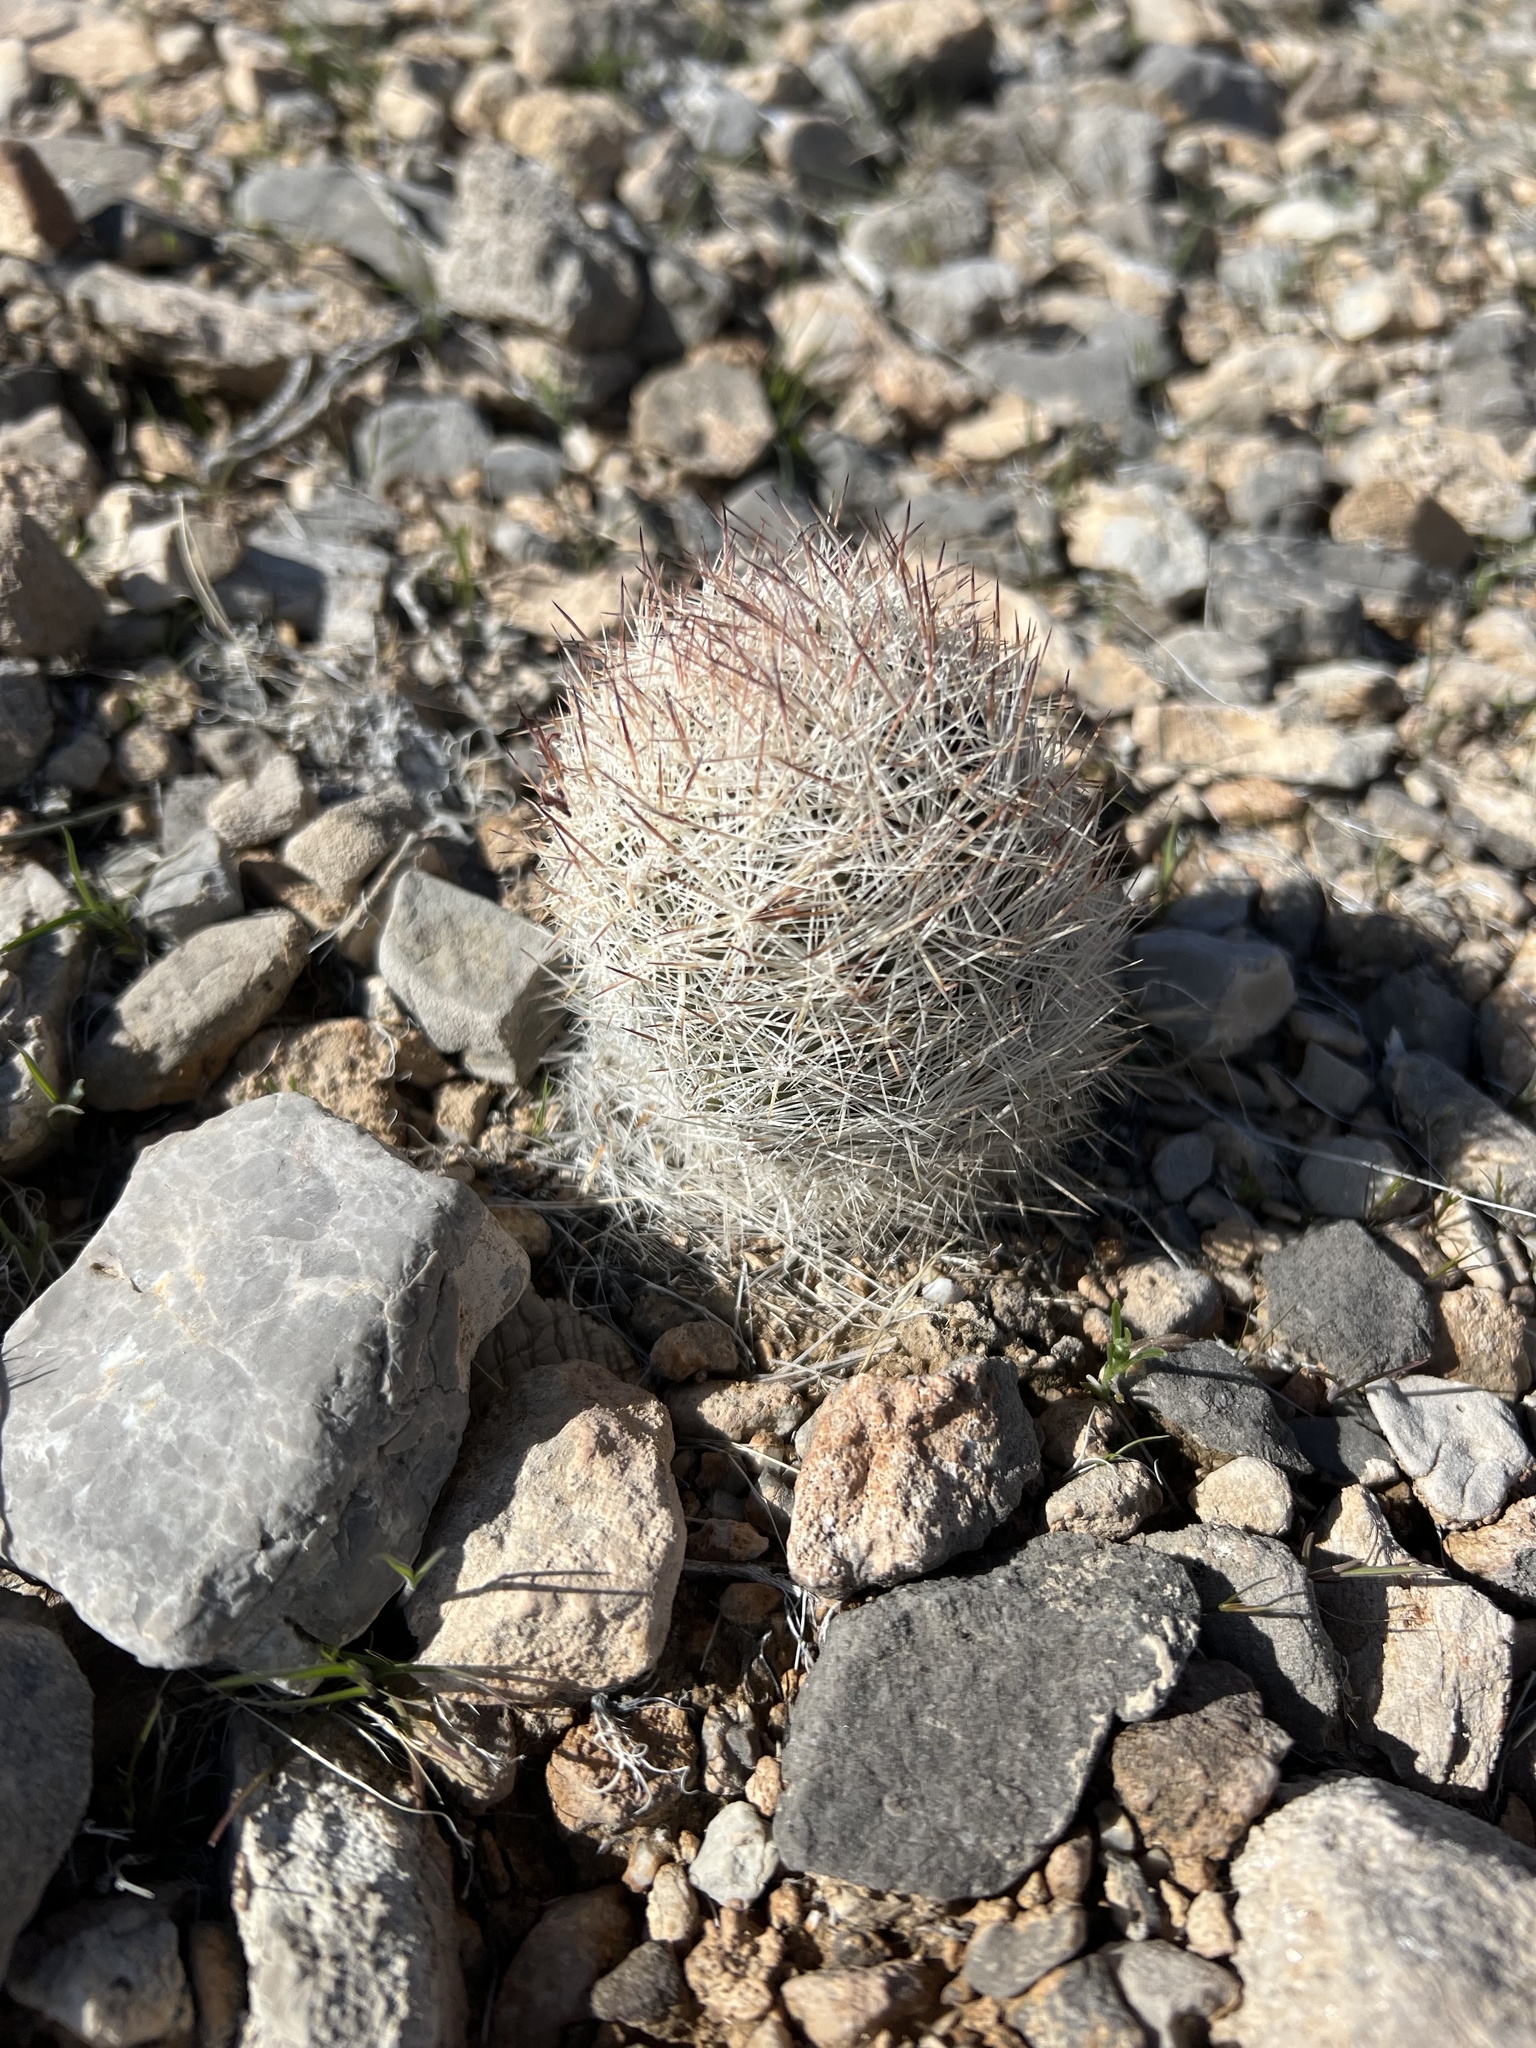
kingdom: Plantae
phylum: Tracheophyta
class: Magnoliopsida
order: Caryophyllales
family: Cactaceae
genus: Pelecyphora
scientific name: Pelecyphora dasyacantha
